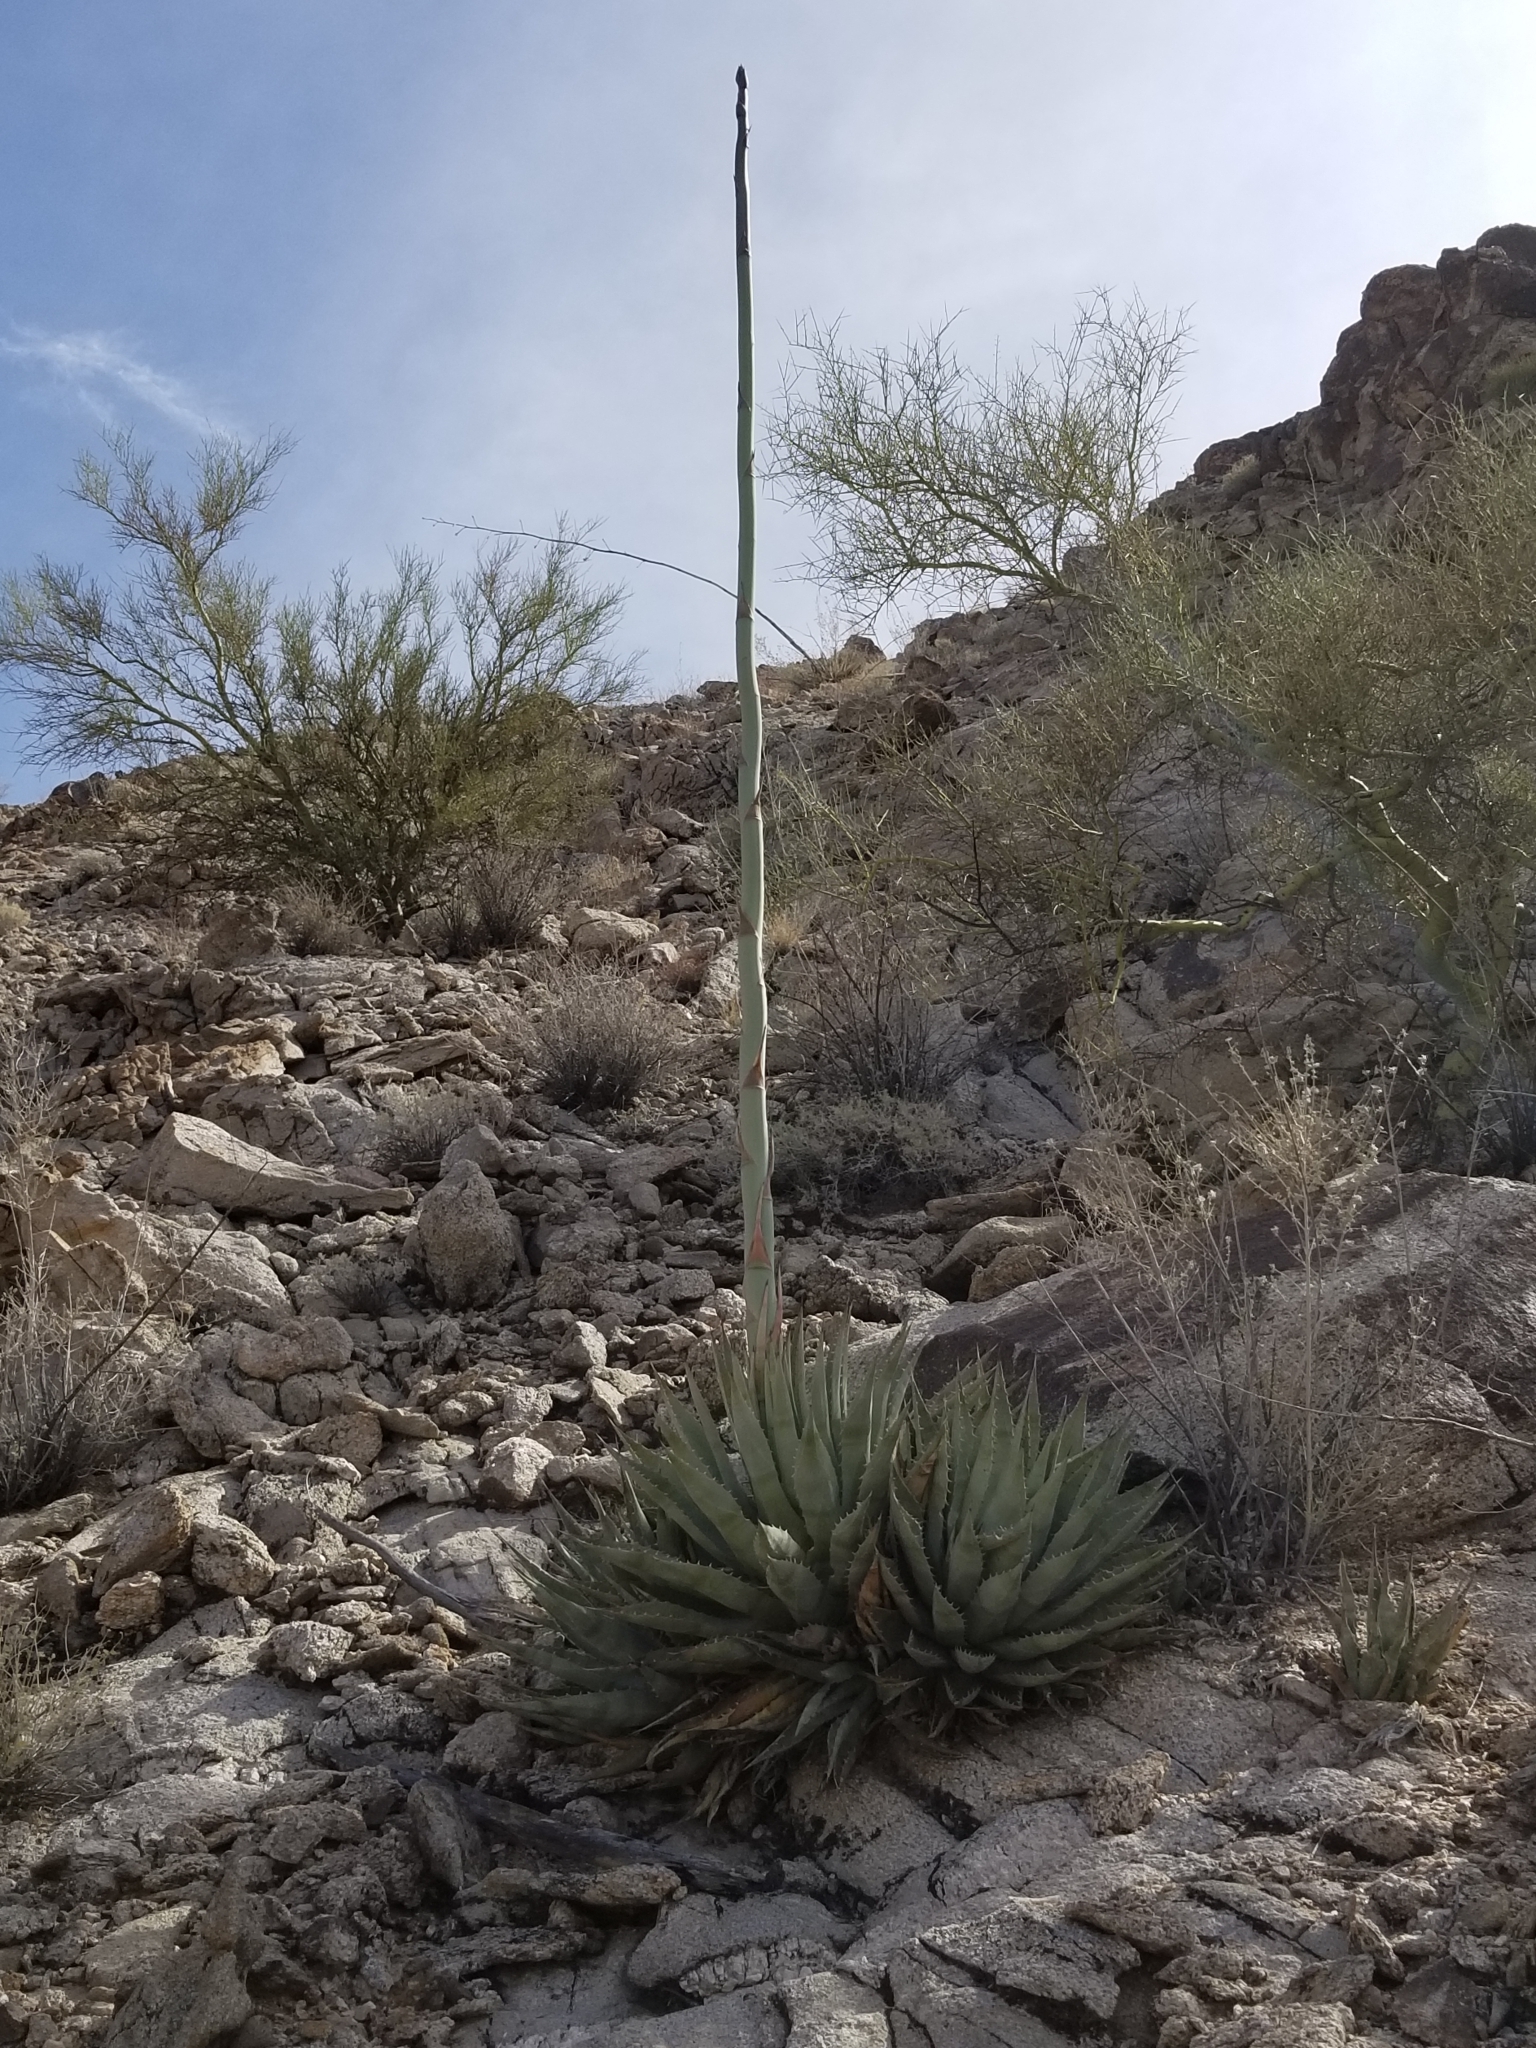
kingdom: Plantae
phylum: Tracheophyta
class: Liliopsida
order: Asparagales
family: Asparagaceae
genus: Agave
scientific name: Agave simplex
